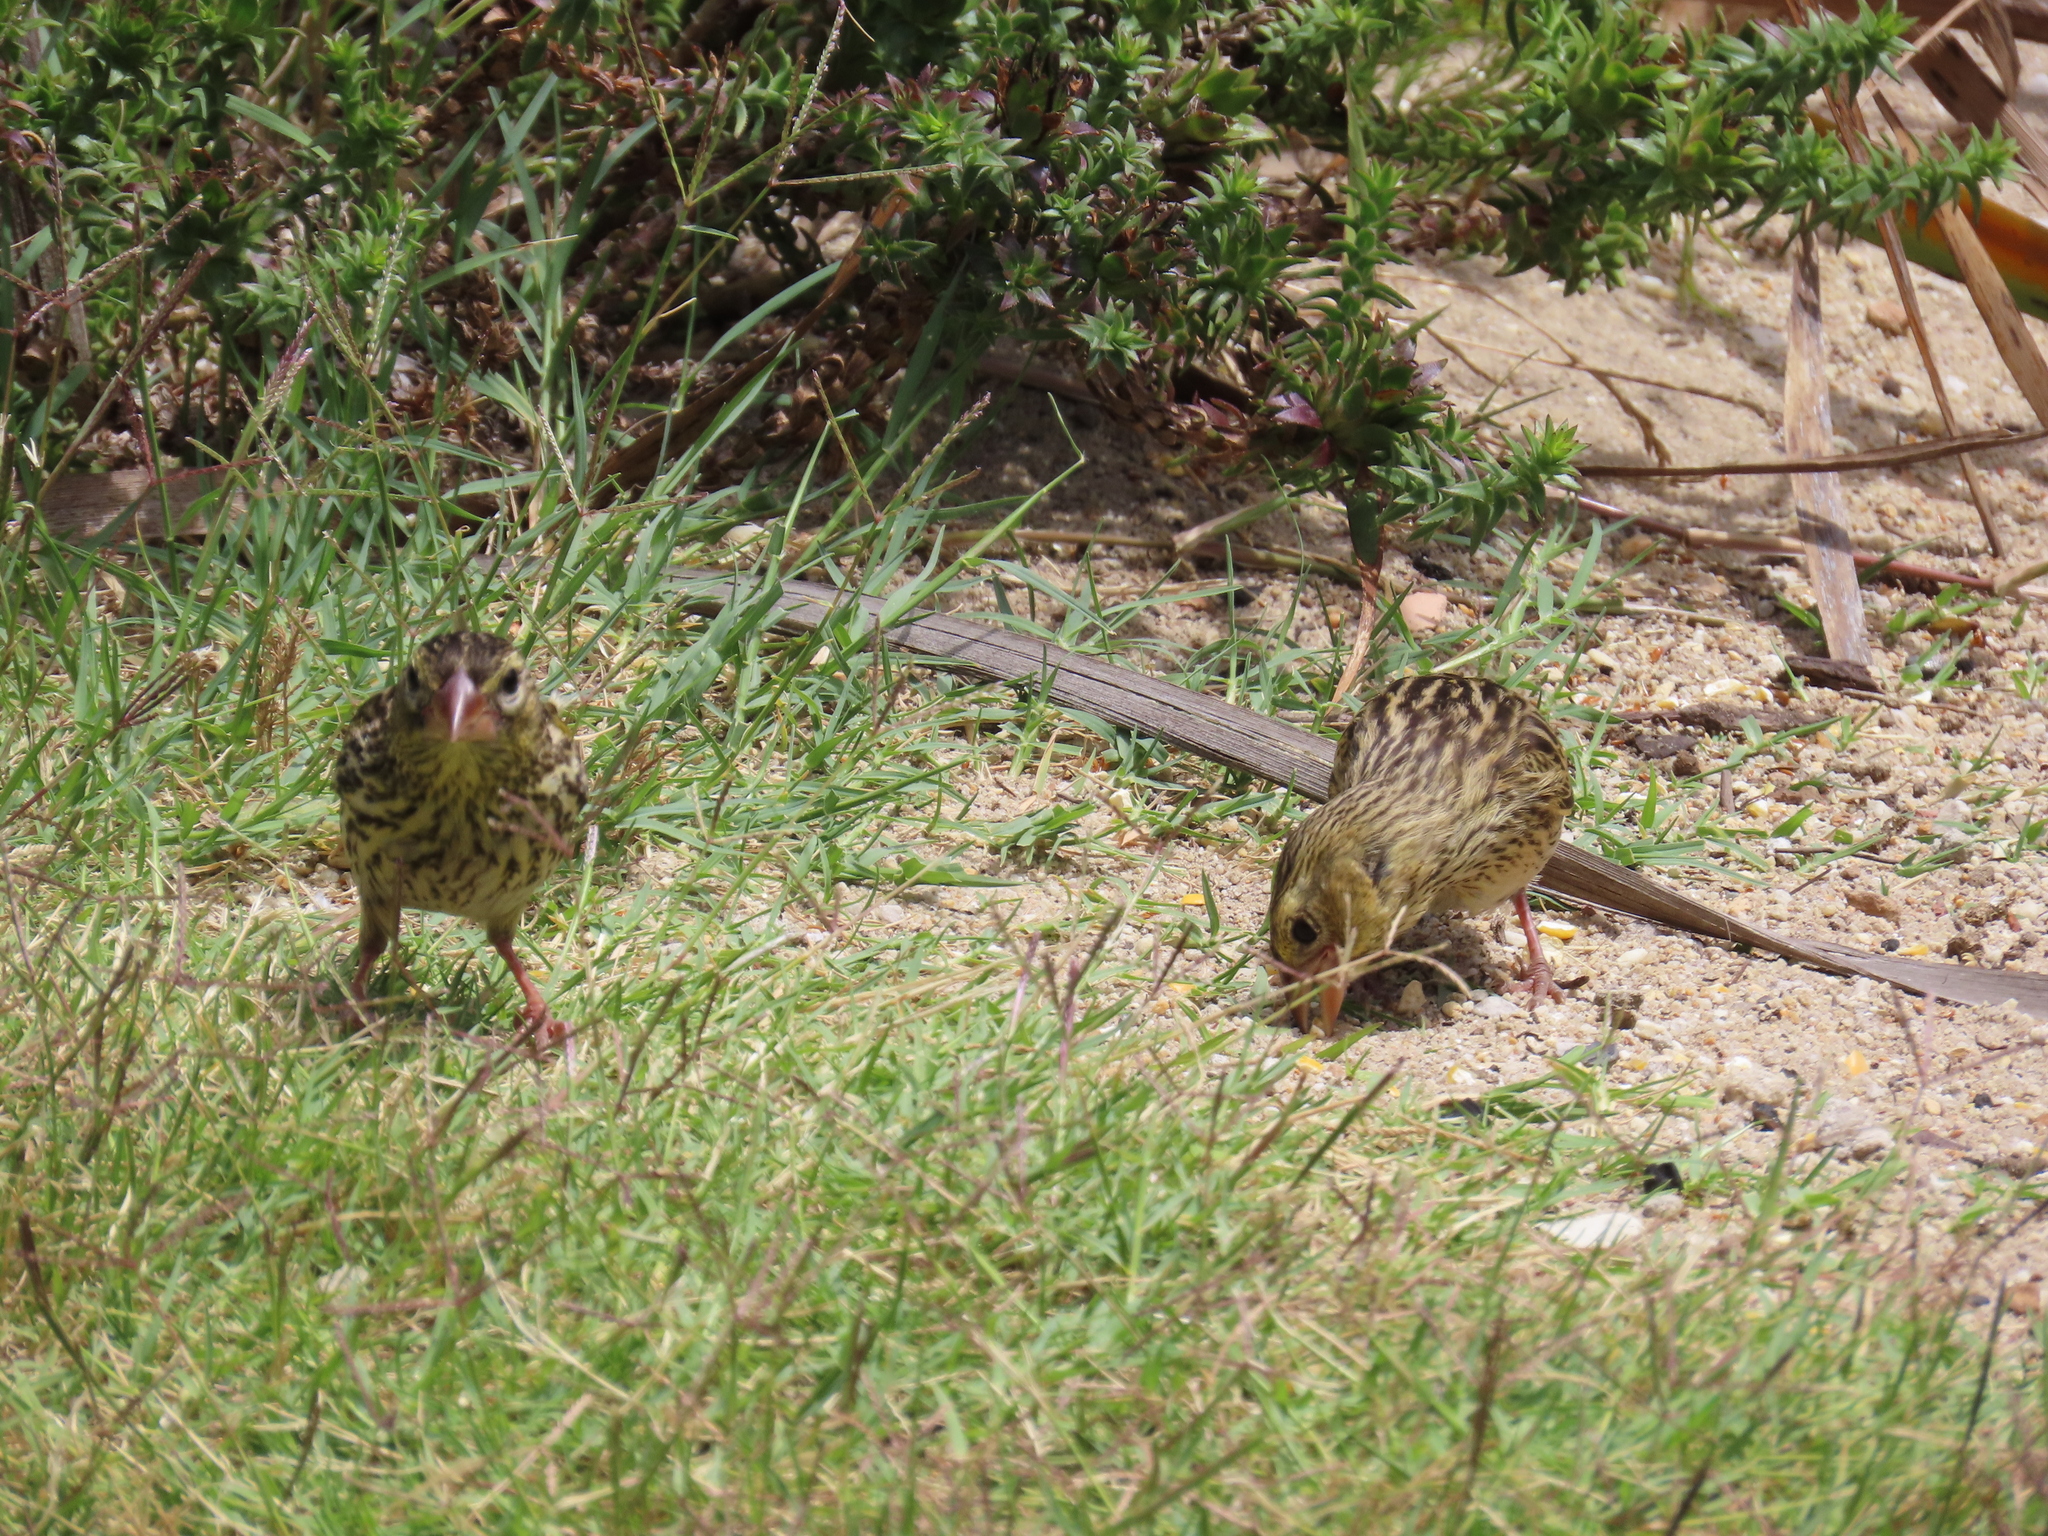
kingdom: Animalia
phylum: Chordata
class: Aves
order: Passeriformes
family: Ploceidae
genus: Euplectes
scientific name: Euplectes capensis
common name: Yellow bishop
